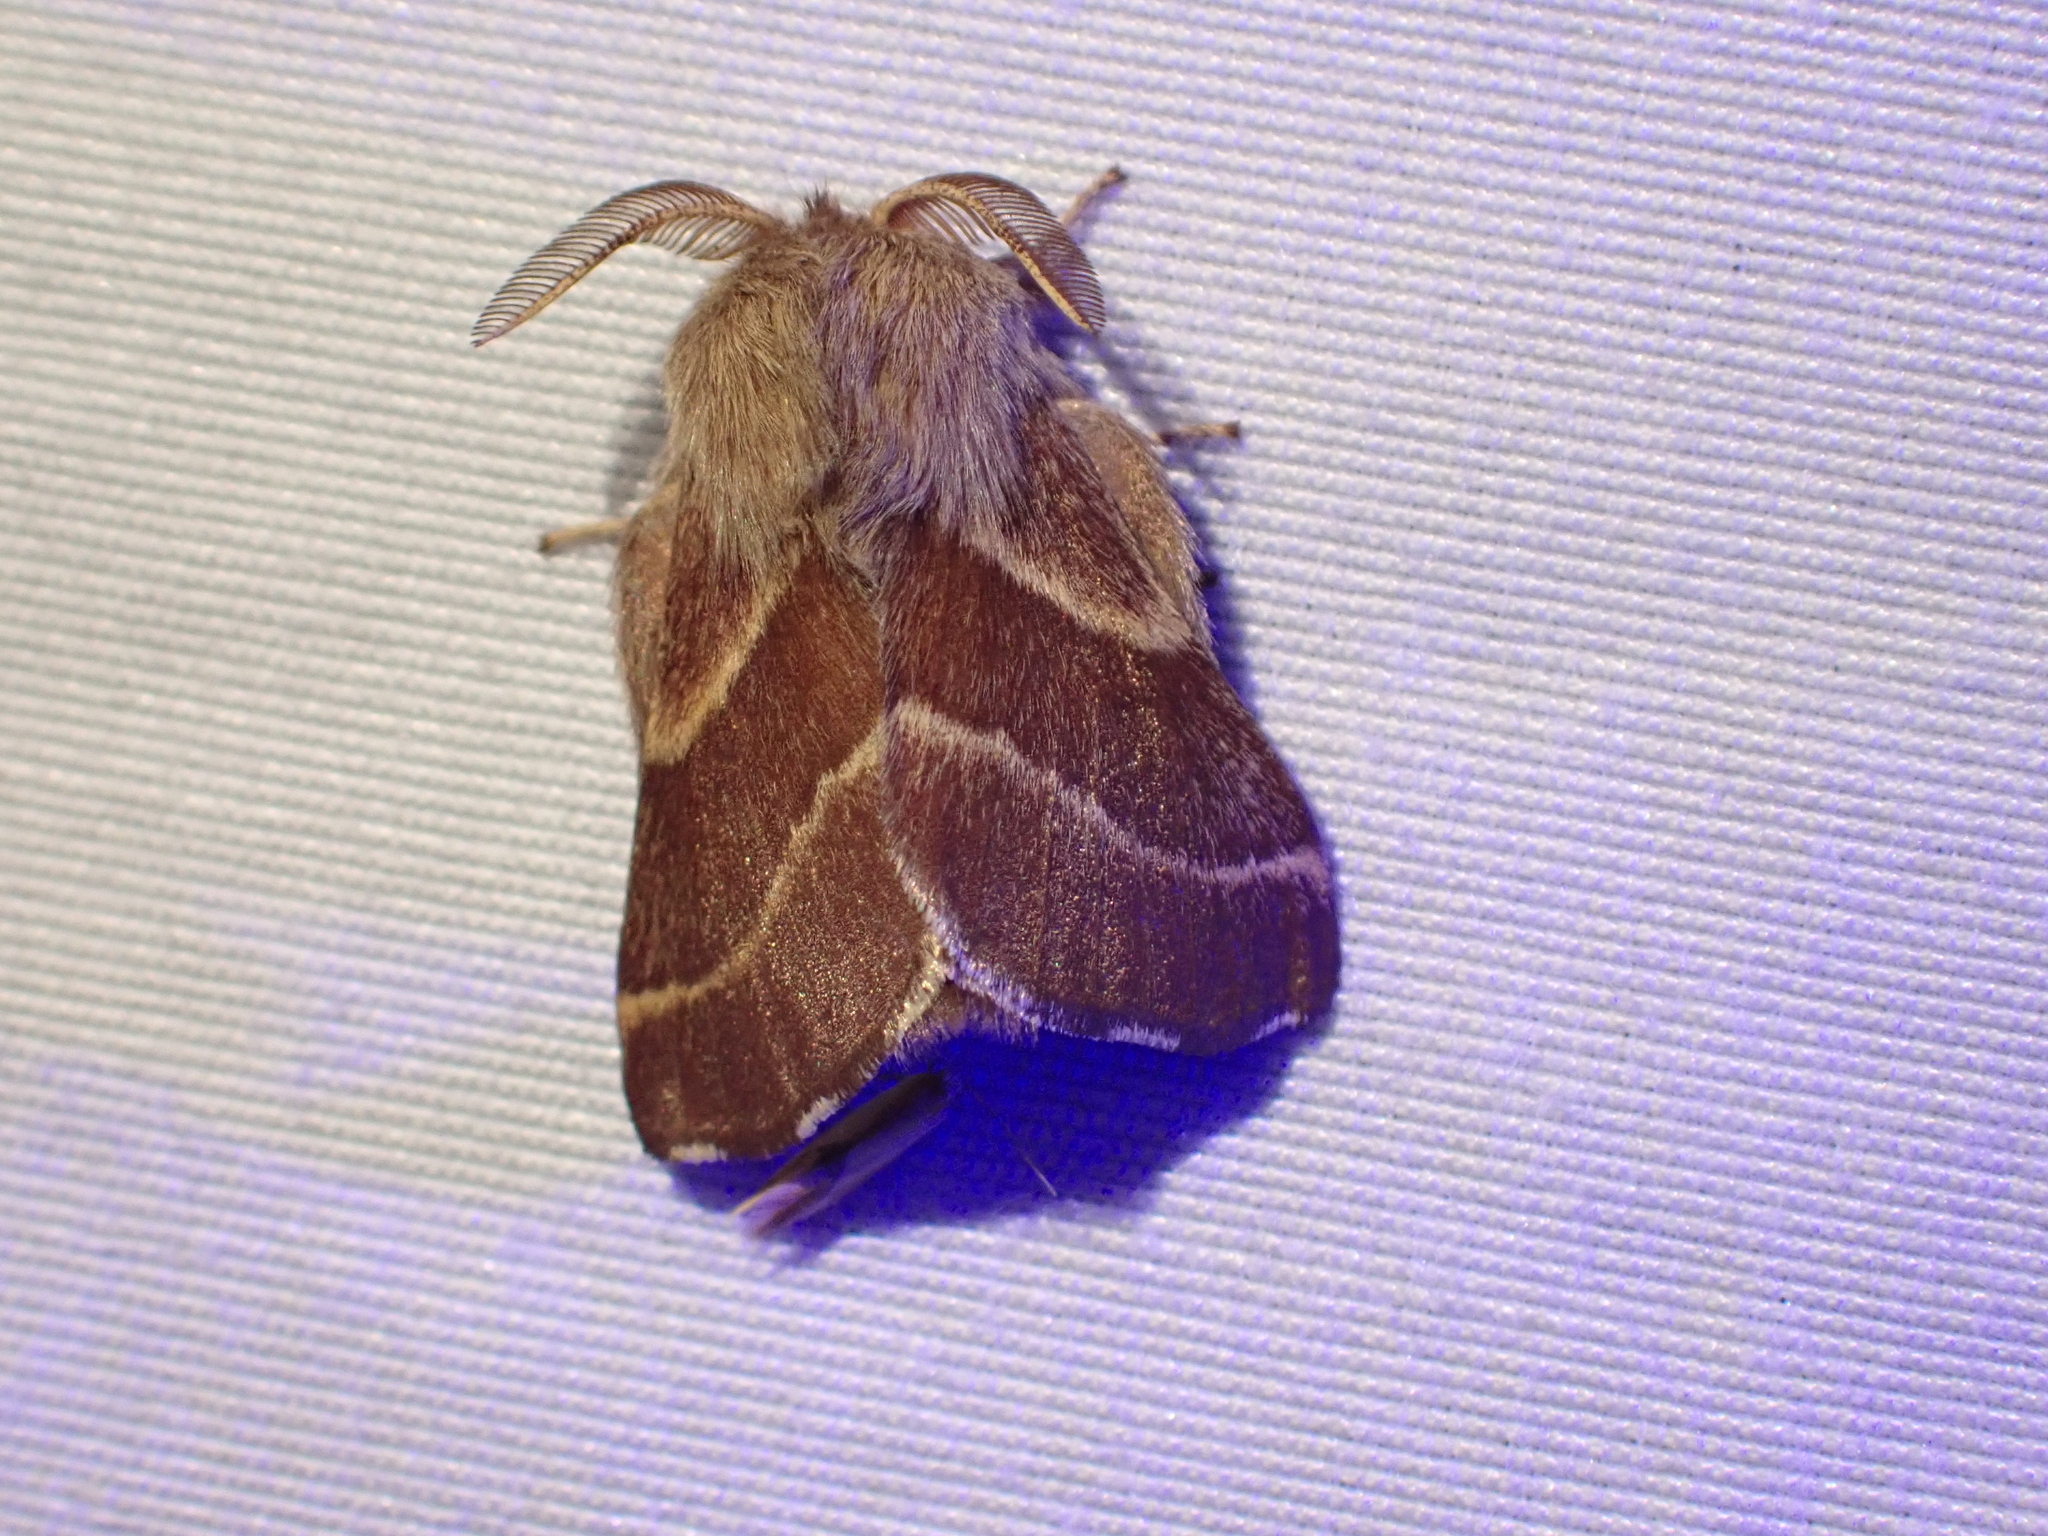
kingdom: Animalia
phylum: Arthropoda
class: Insecta
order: Lepidoptera
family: Lasiocampidae
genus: Malacosoma
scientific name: Malacosoma californica
